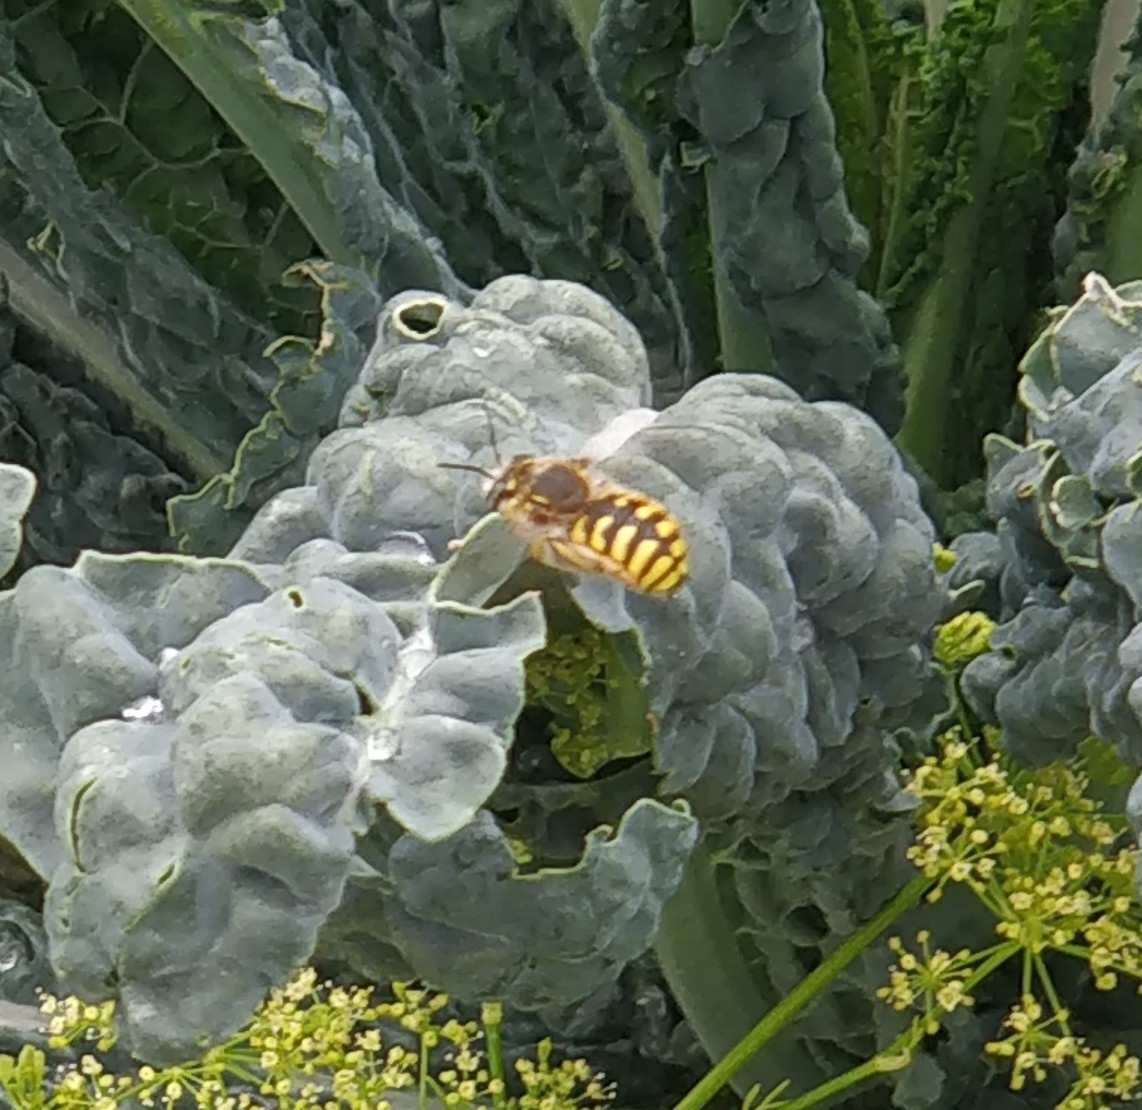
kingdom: Animalia
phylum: Arthropoda
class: Insecta
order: Hymenoptera
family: Megachilidae
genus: Anthidium
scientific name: Anthidium manicatum
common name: Wool carder bee
